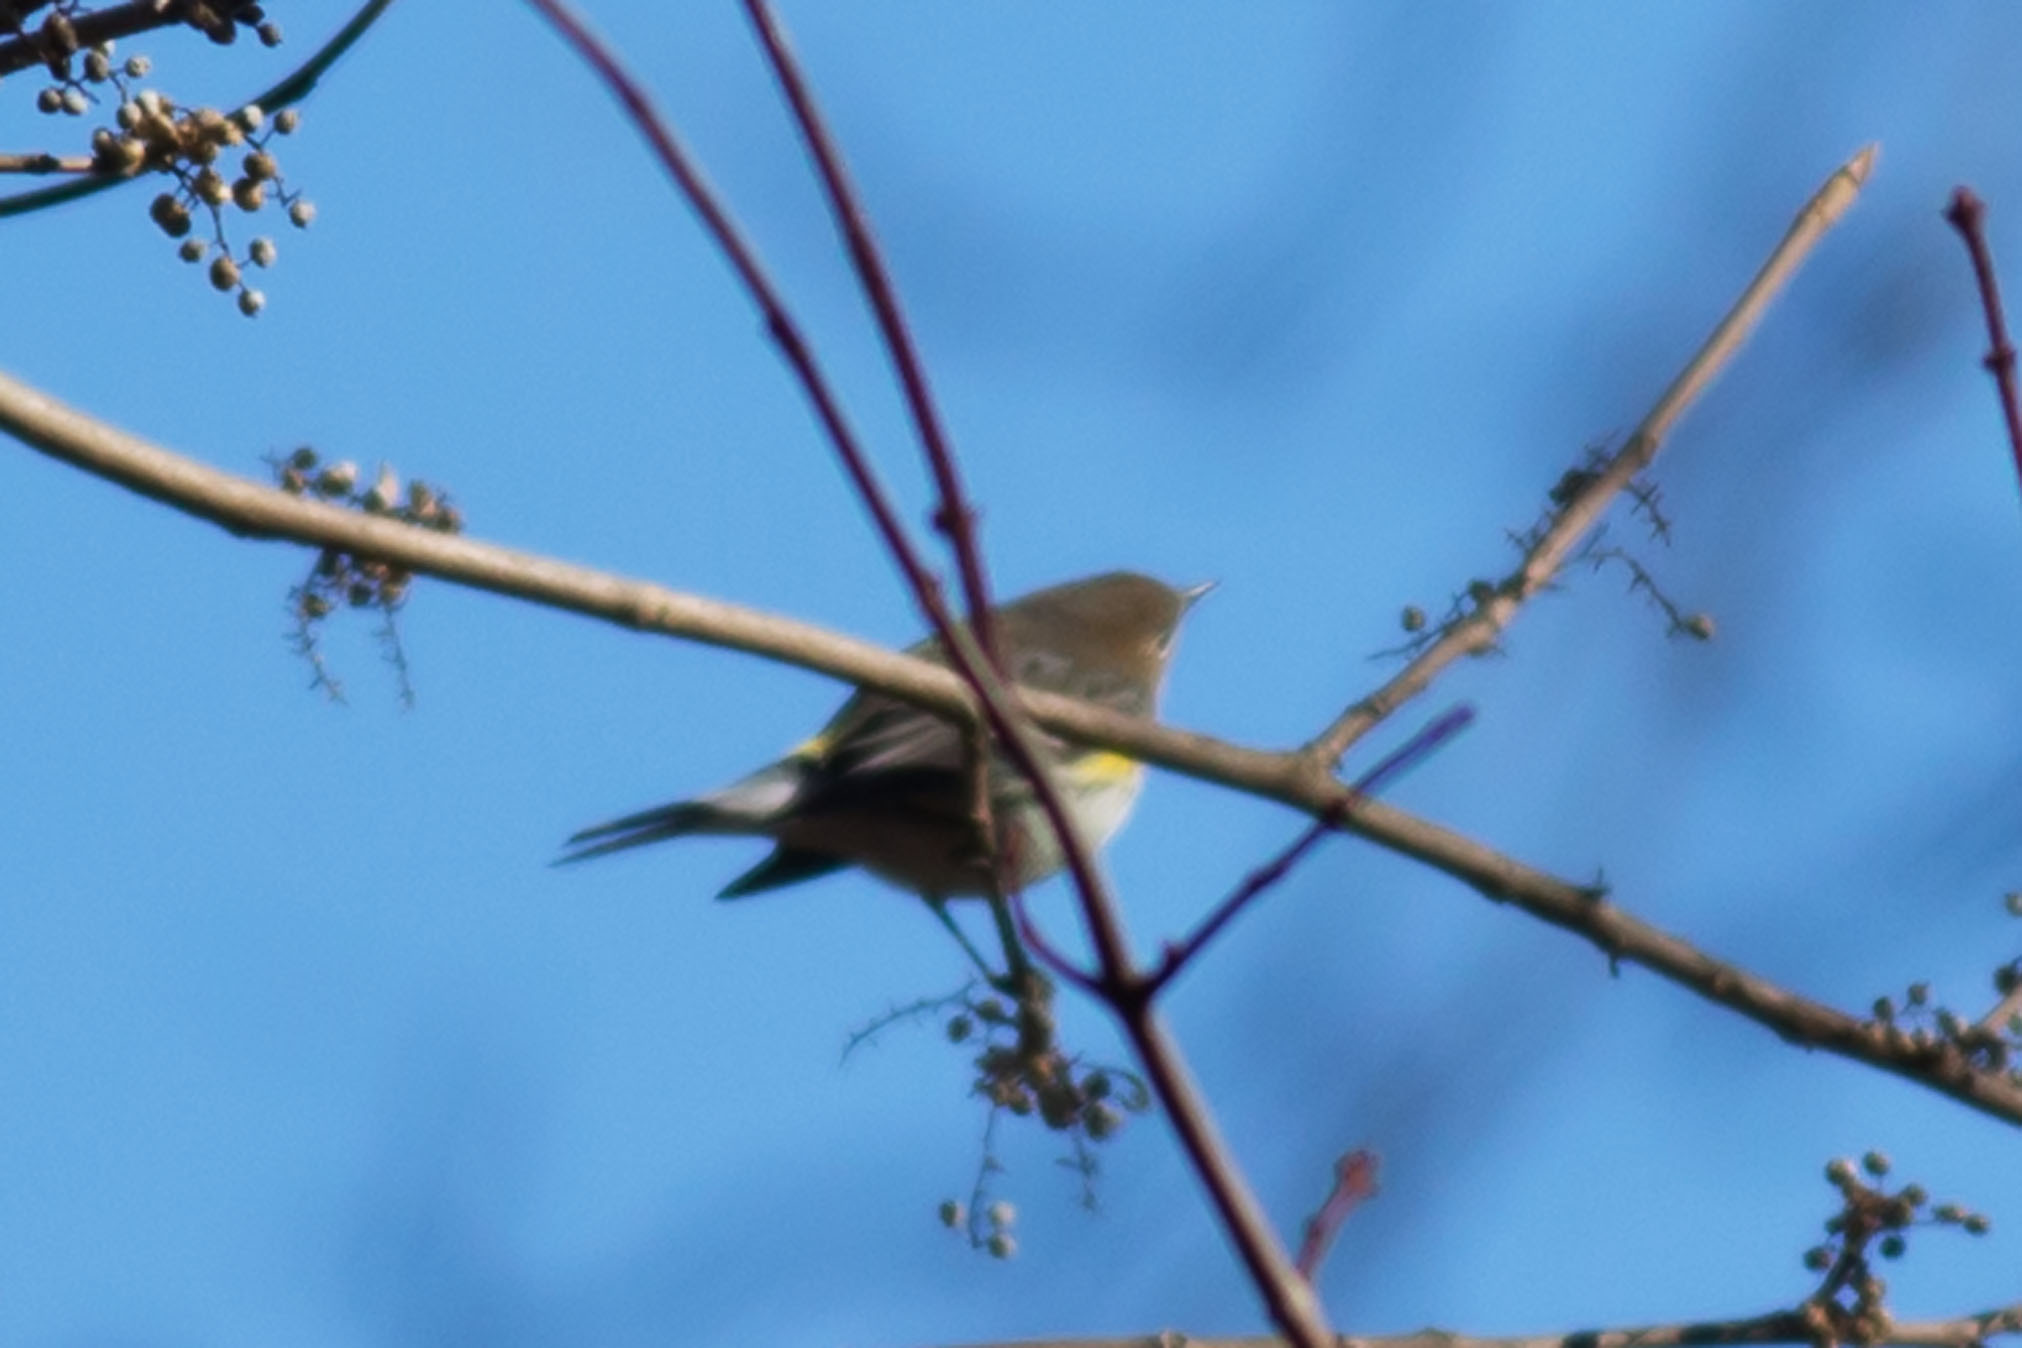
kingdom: Animalia
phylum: Chordata
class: Aves
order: Passeriformes
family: Parulidae
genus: Setophaga
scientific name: Setophaga coronata
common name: Myrtle warbler
